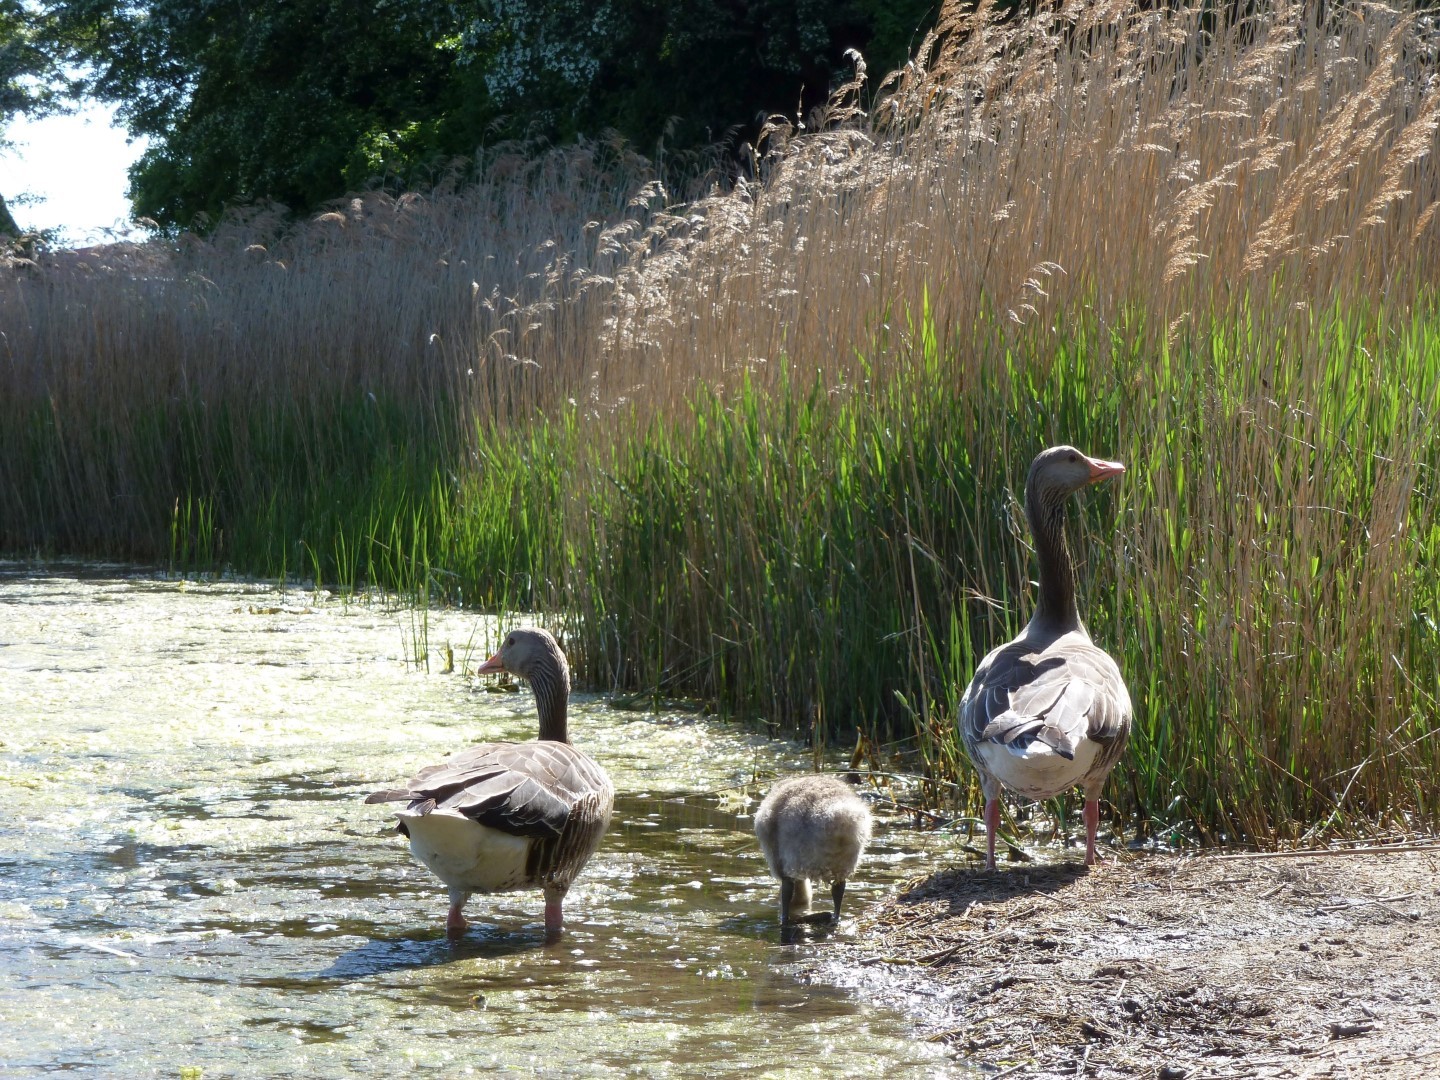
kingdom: Animalia
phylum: Chordata
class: Aves
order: Anseriformes
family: Anatidae
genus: Anser
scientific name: Anser anser
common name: Greylag goose
